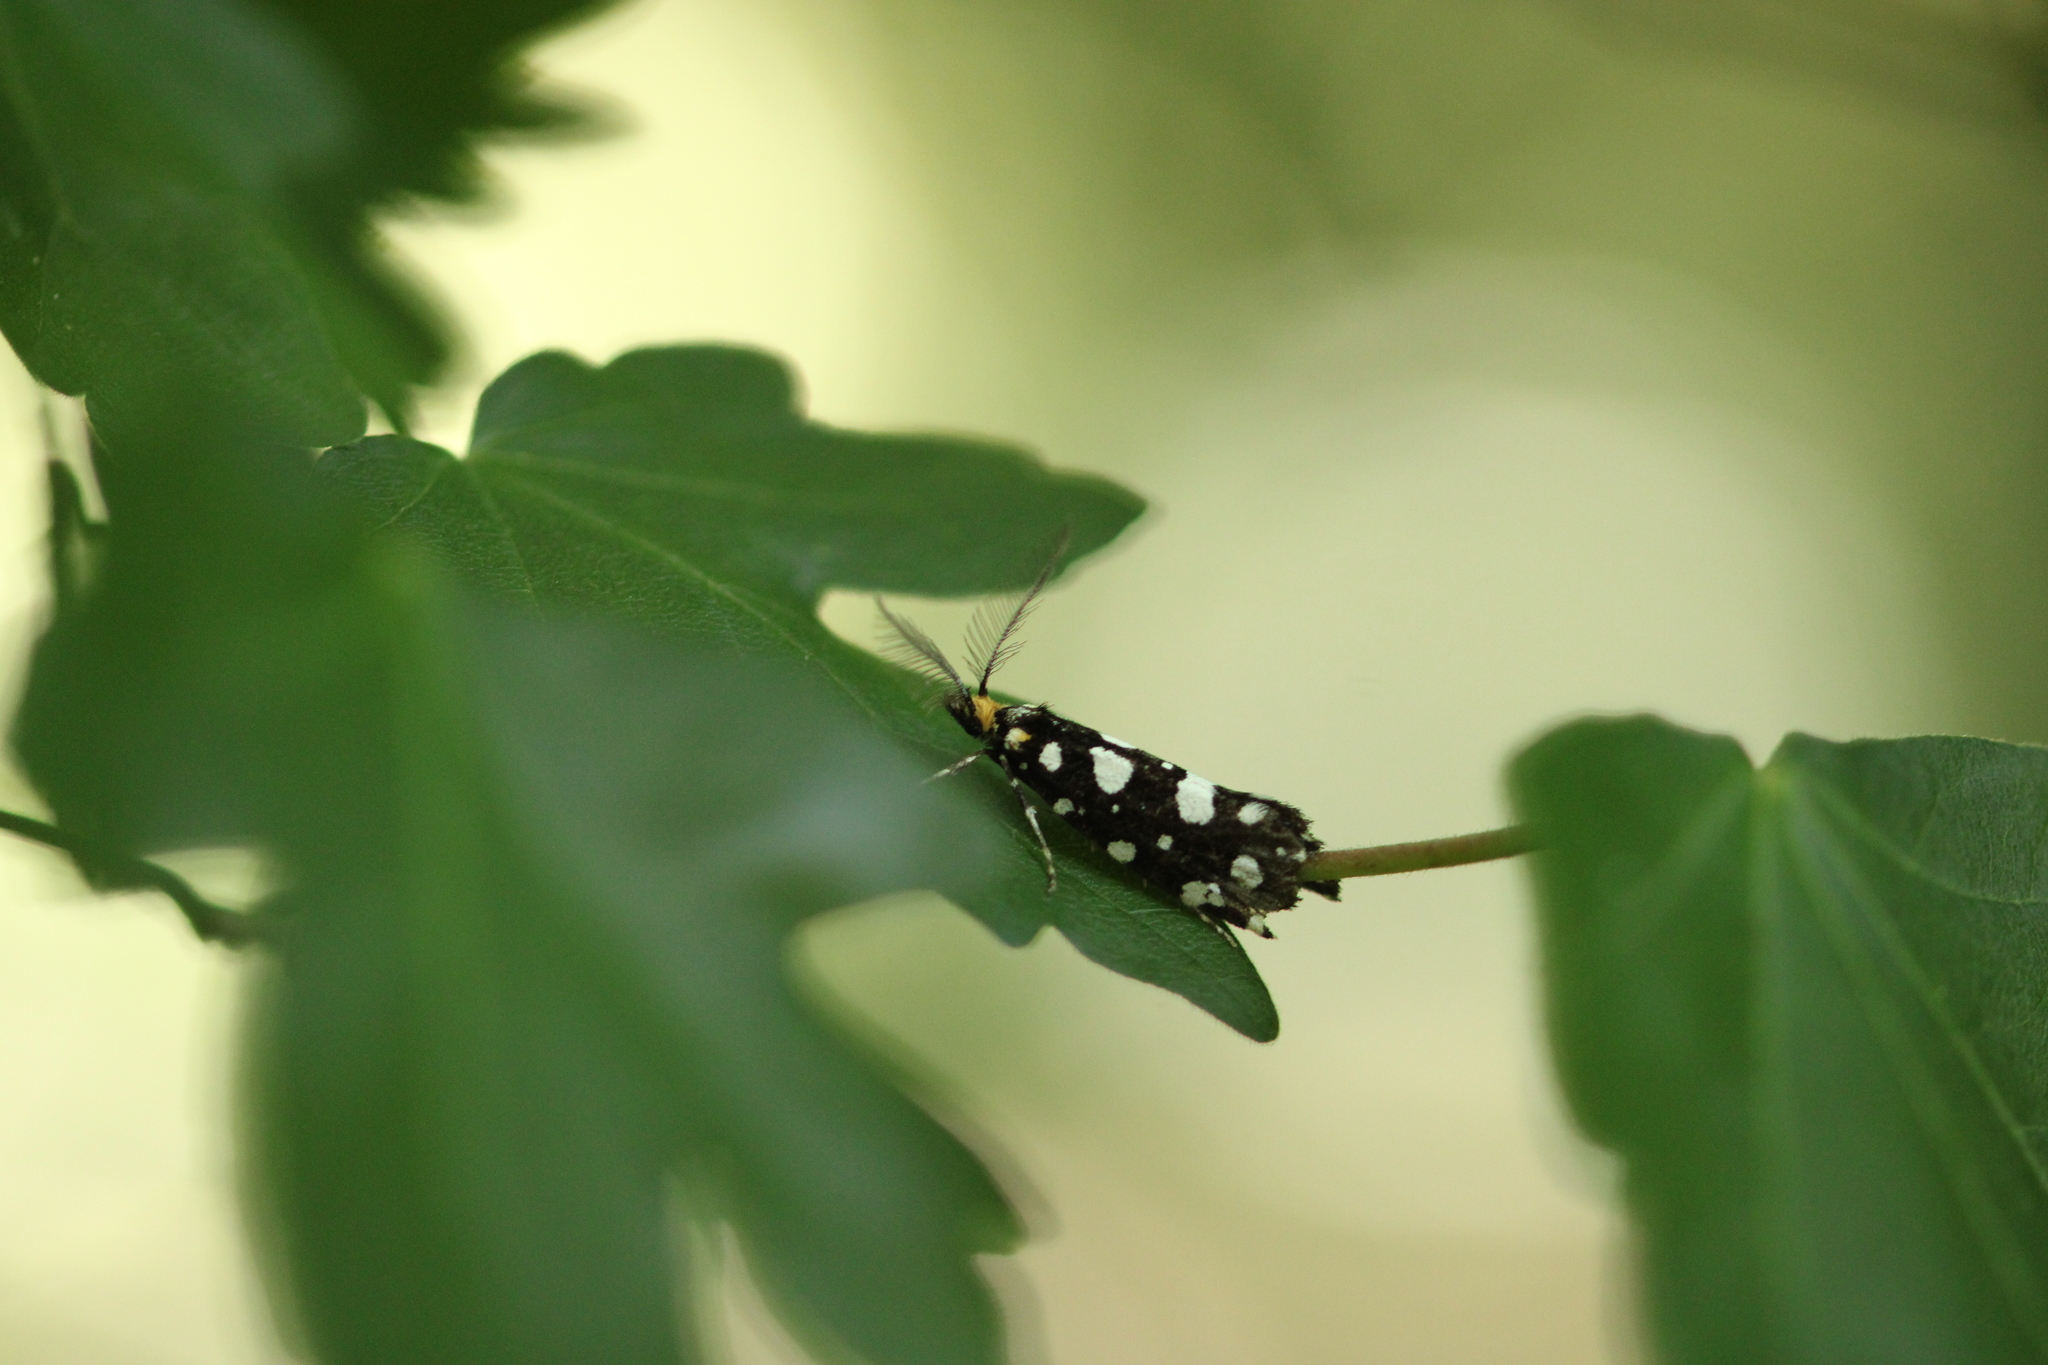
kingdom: Animalia
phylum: Arthropoda
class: Insecta
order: Lepidoptera
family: Tineidae
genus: Euplocamus
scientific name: Euplocamus anthracinalis
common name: Black clothes
